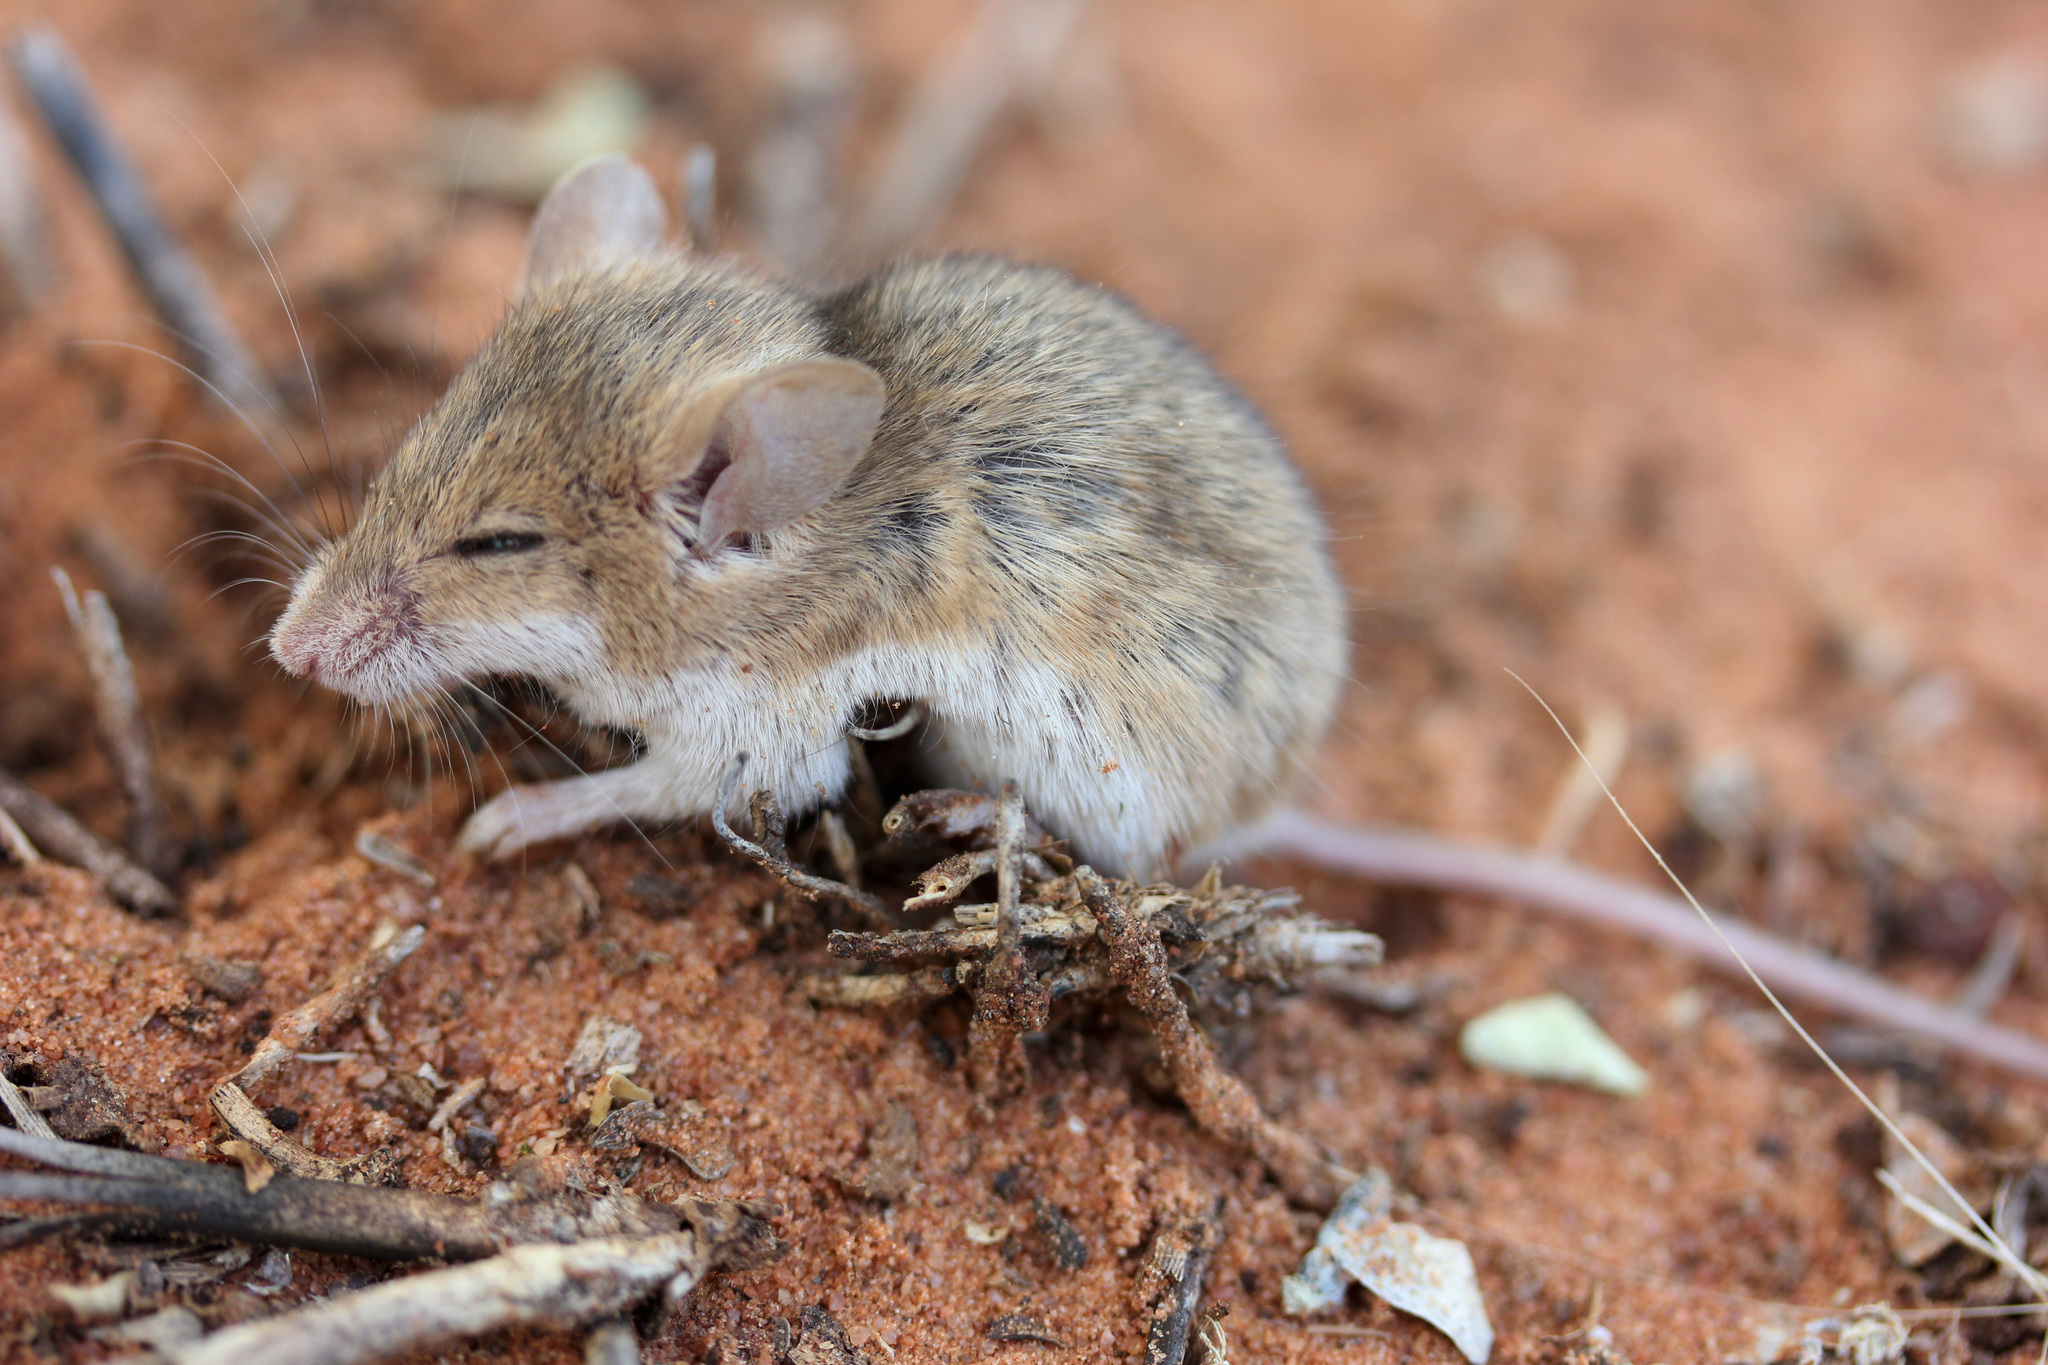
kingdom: Animalia
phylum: Chordata
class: Mammalia
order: Rodentia
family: Muridae
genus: Mus
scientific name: Mus indutus
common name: Desert pygmy mouse
